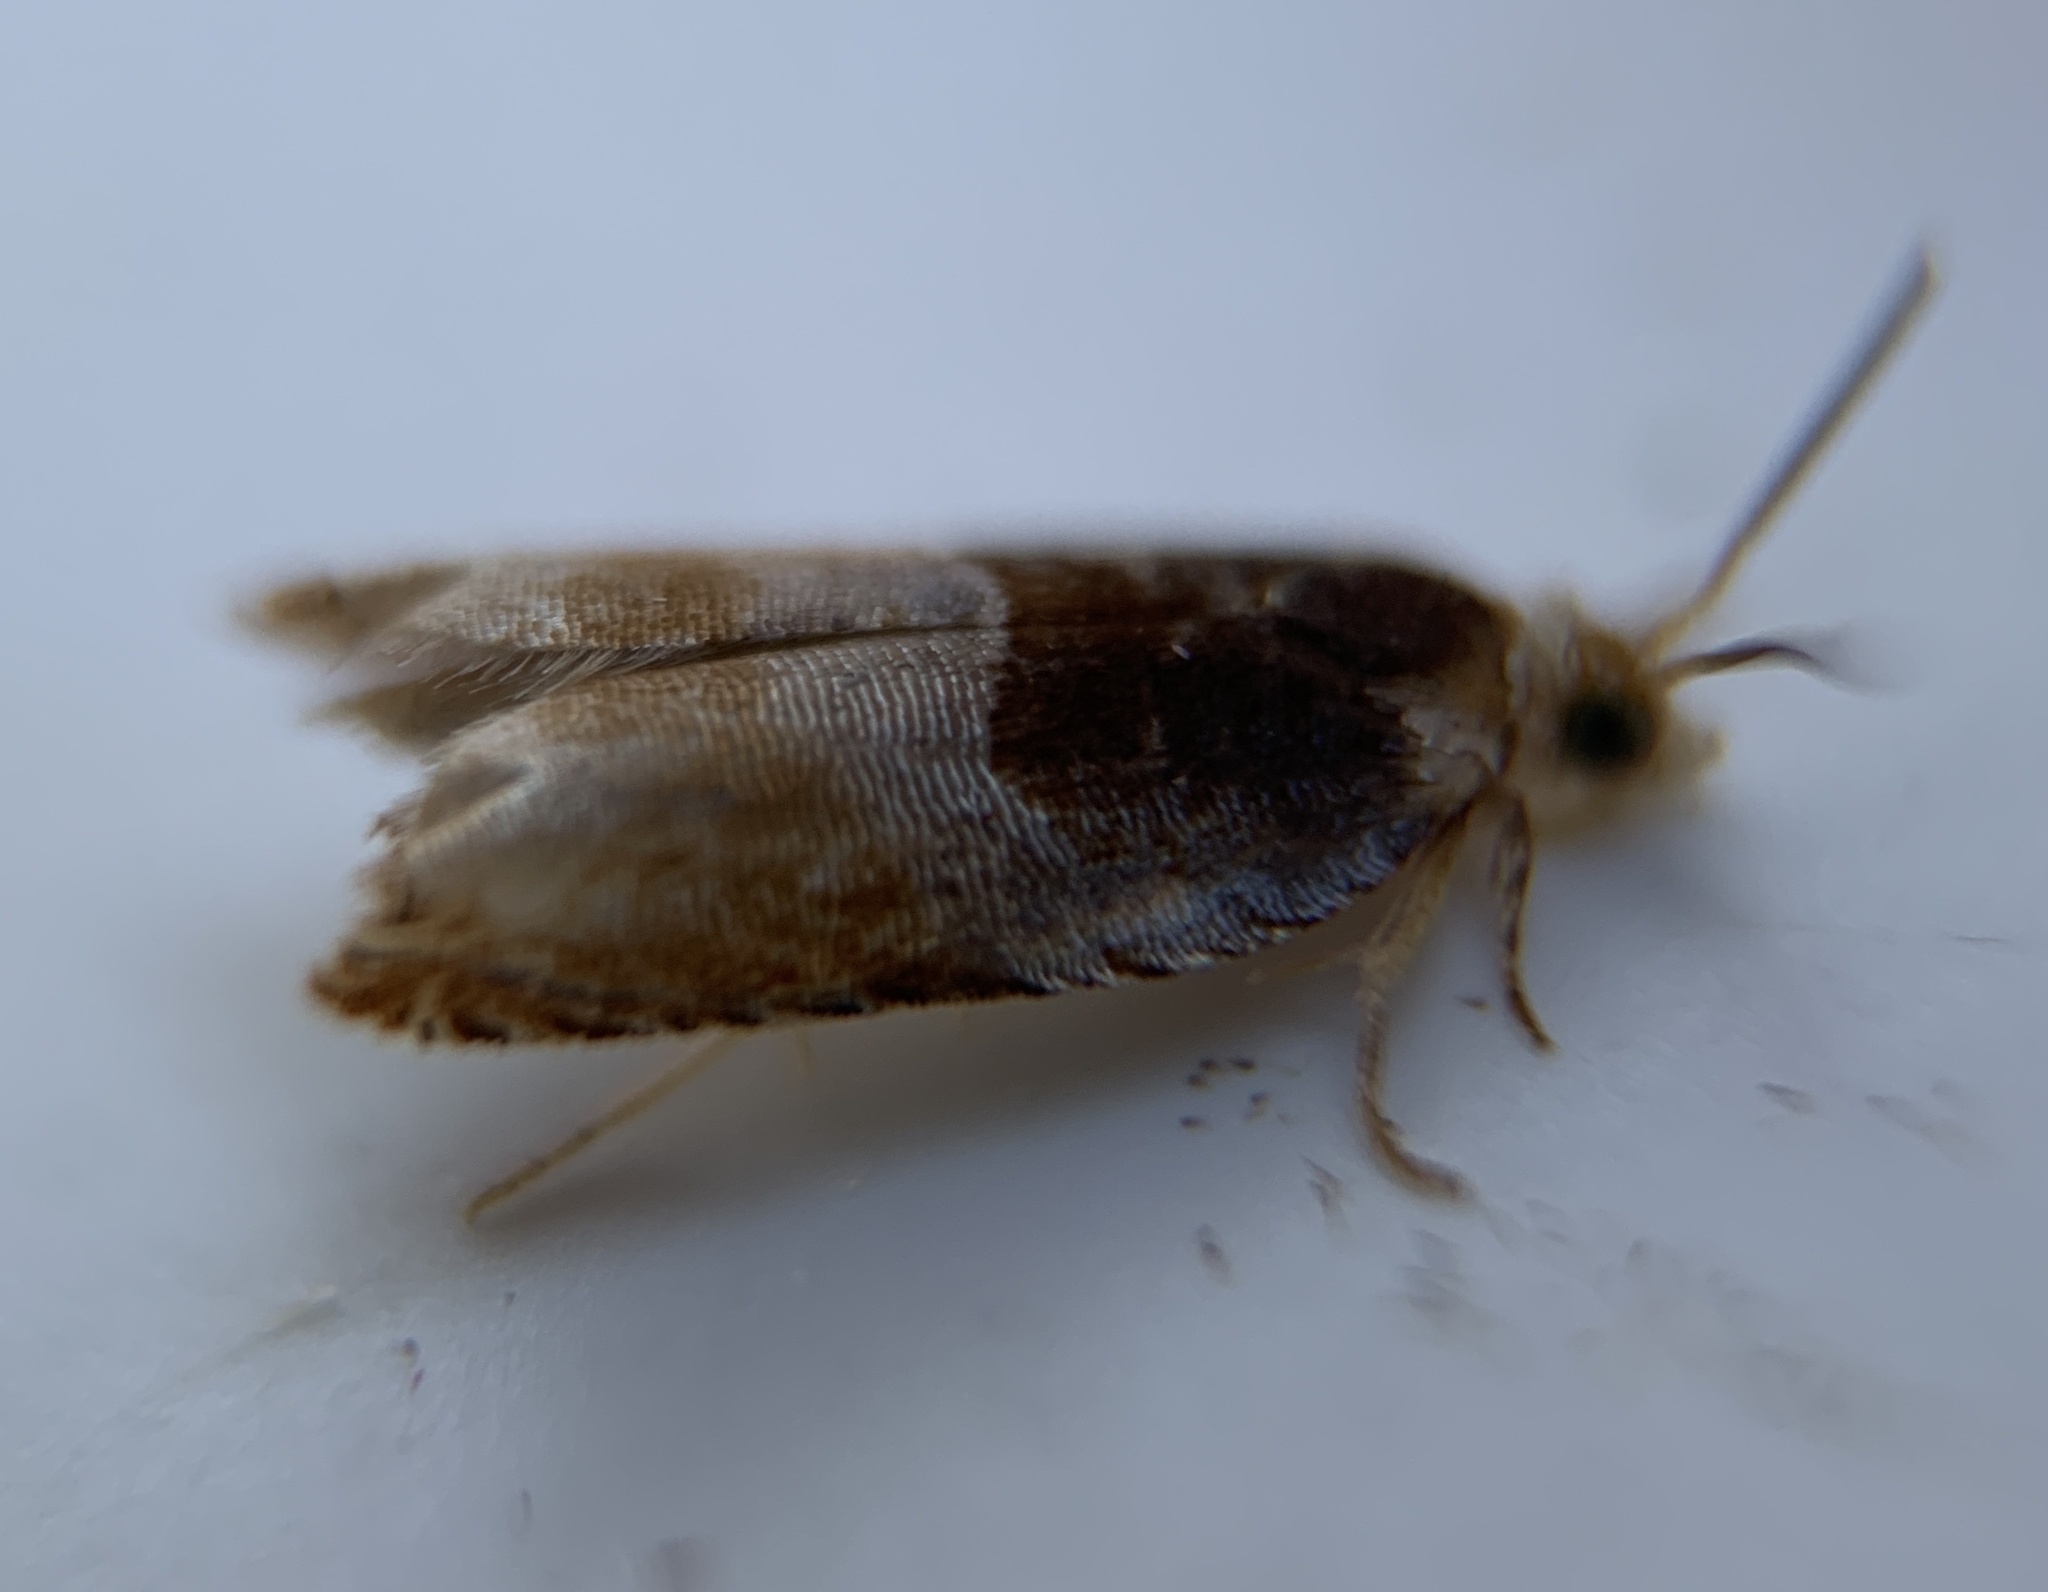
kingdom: Animalia
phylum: Arthropoda
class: Insecta
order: Lepidoptera
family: Tortricidae
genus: Ancylis
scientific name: Ancylis divisana
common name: Two-toned ancylis moth
